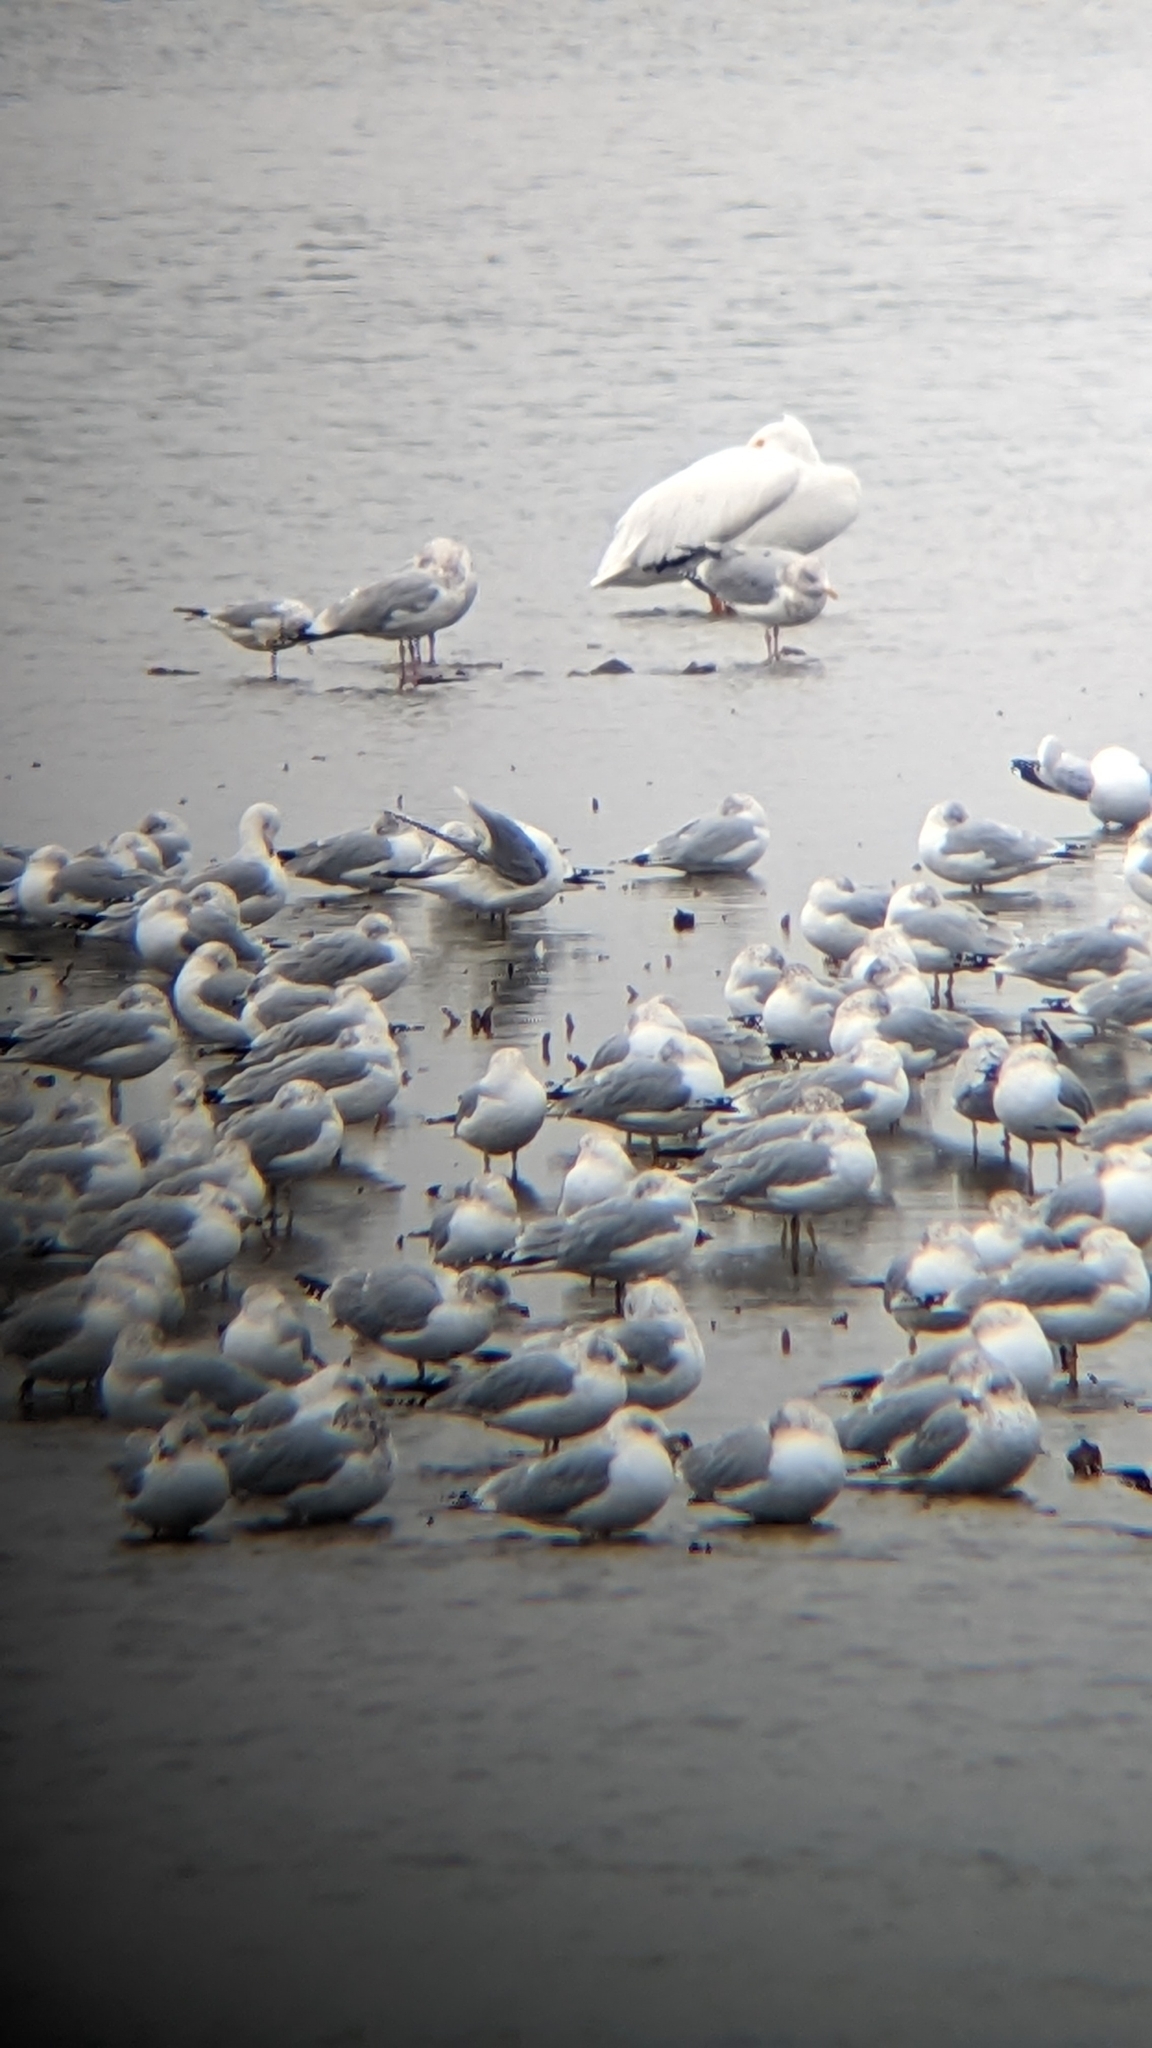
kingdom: Animalia
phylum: Chordata
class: Aves
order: Charadriiformes
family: Laridae
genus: Larus
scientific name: Larus delawarensis
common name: Ring-billed gull
